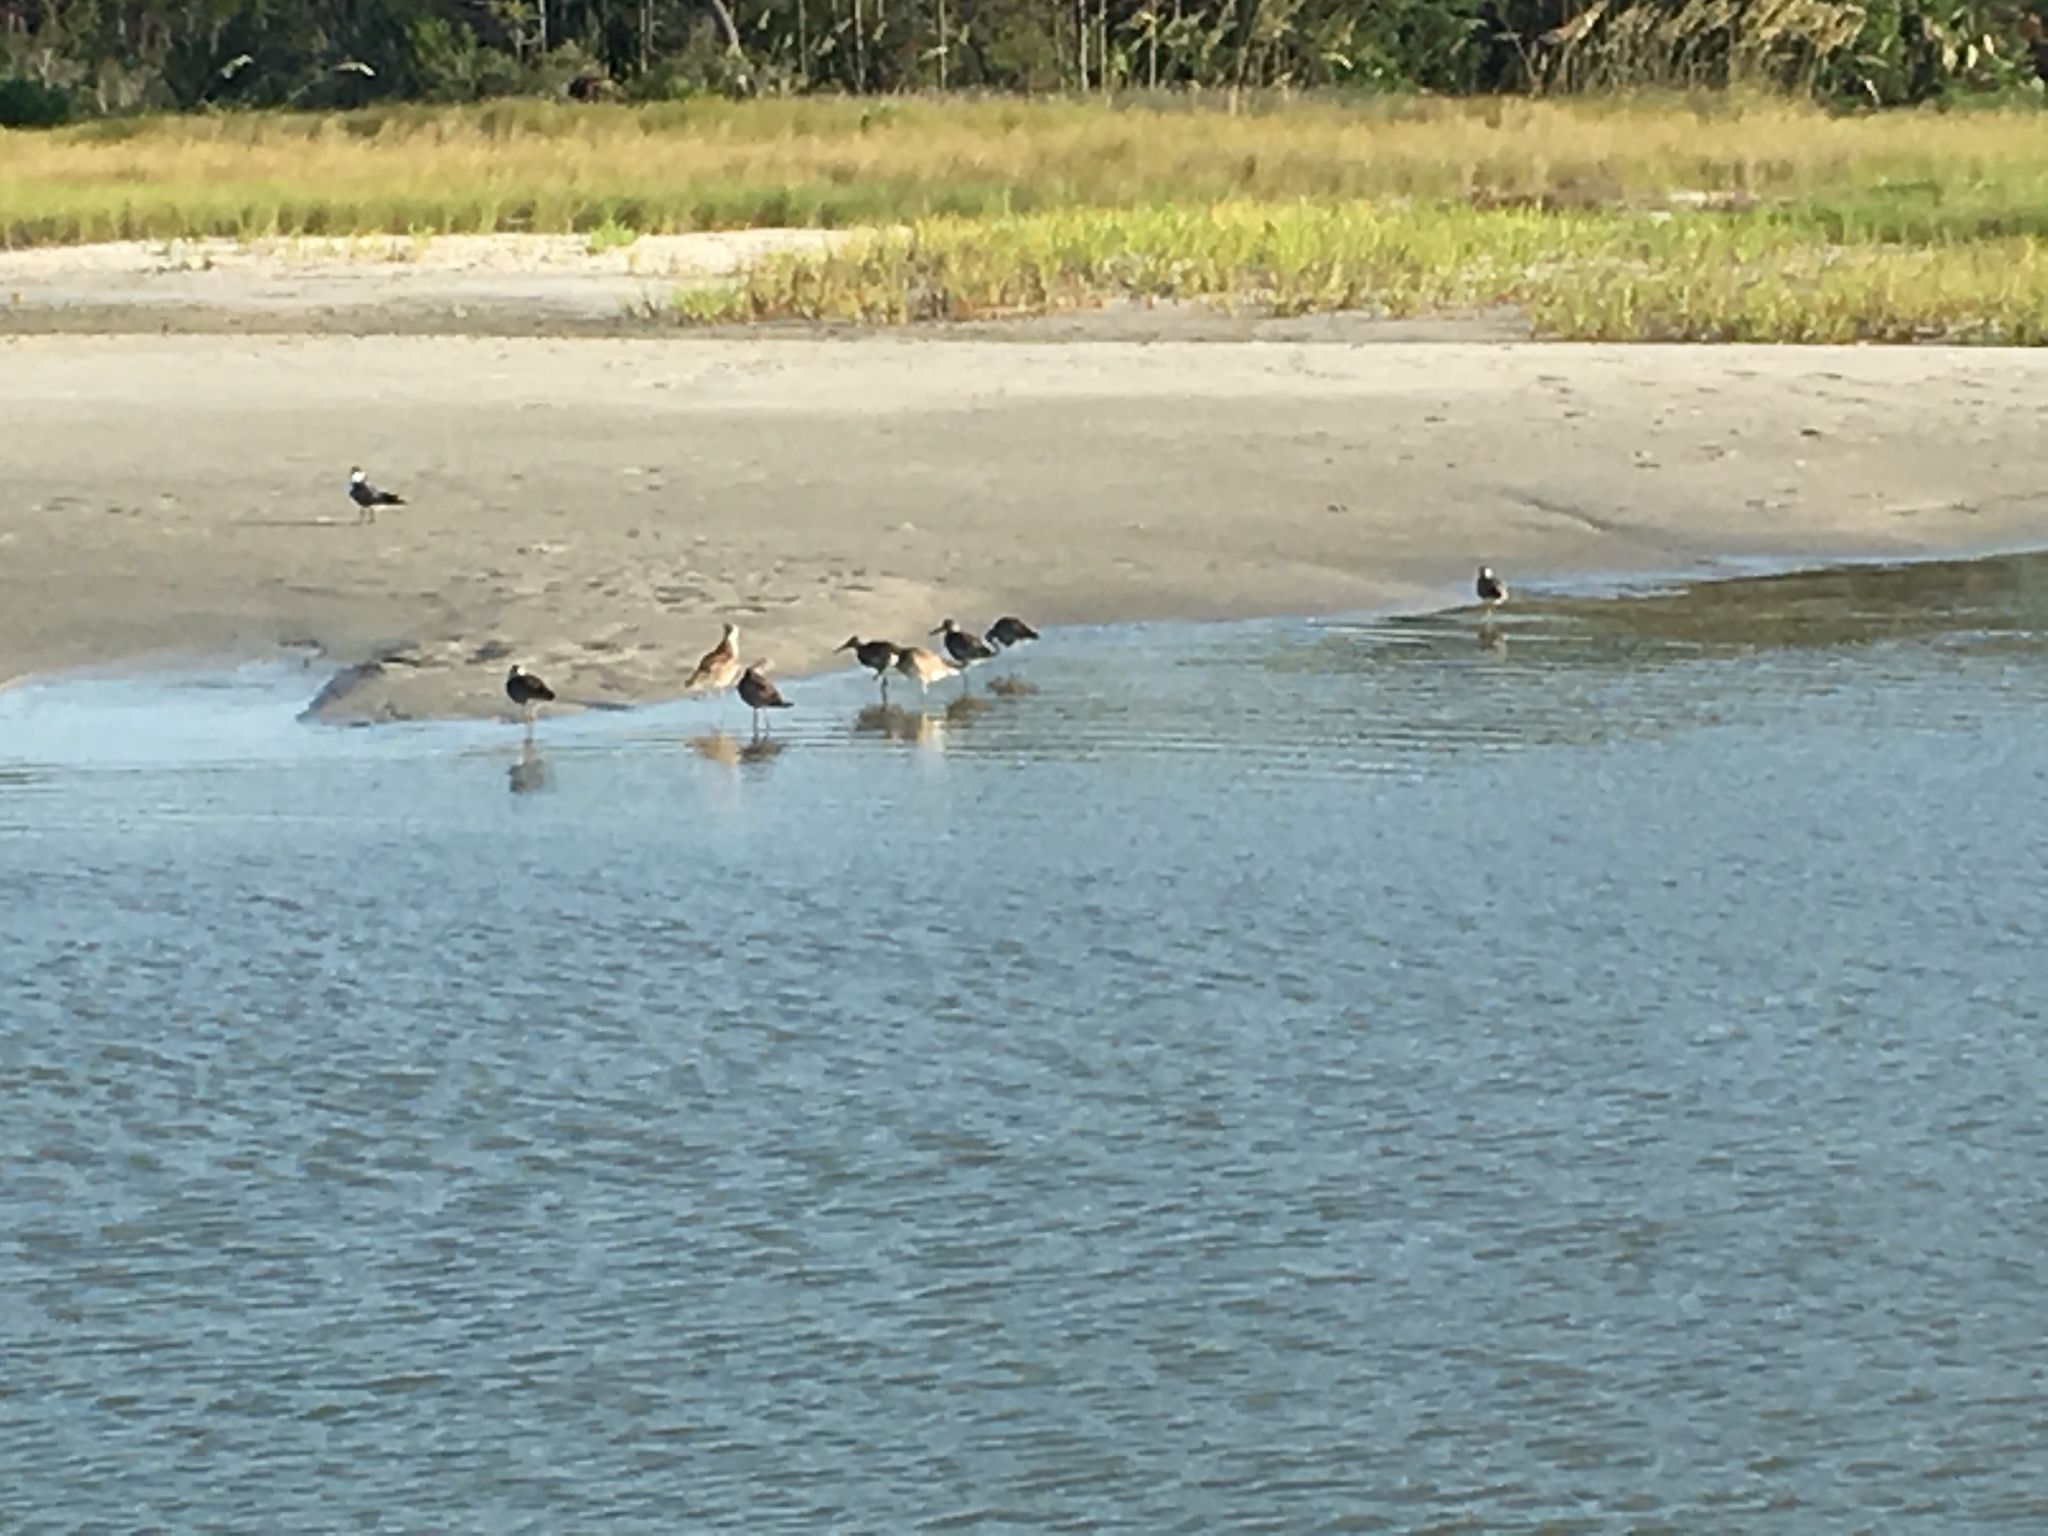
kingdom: Animalia
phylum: Chordata
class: Aves
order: Charadriiformes
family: Scolopacidae
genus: Tringa
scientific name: Tringa semipalmata
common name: Willet
